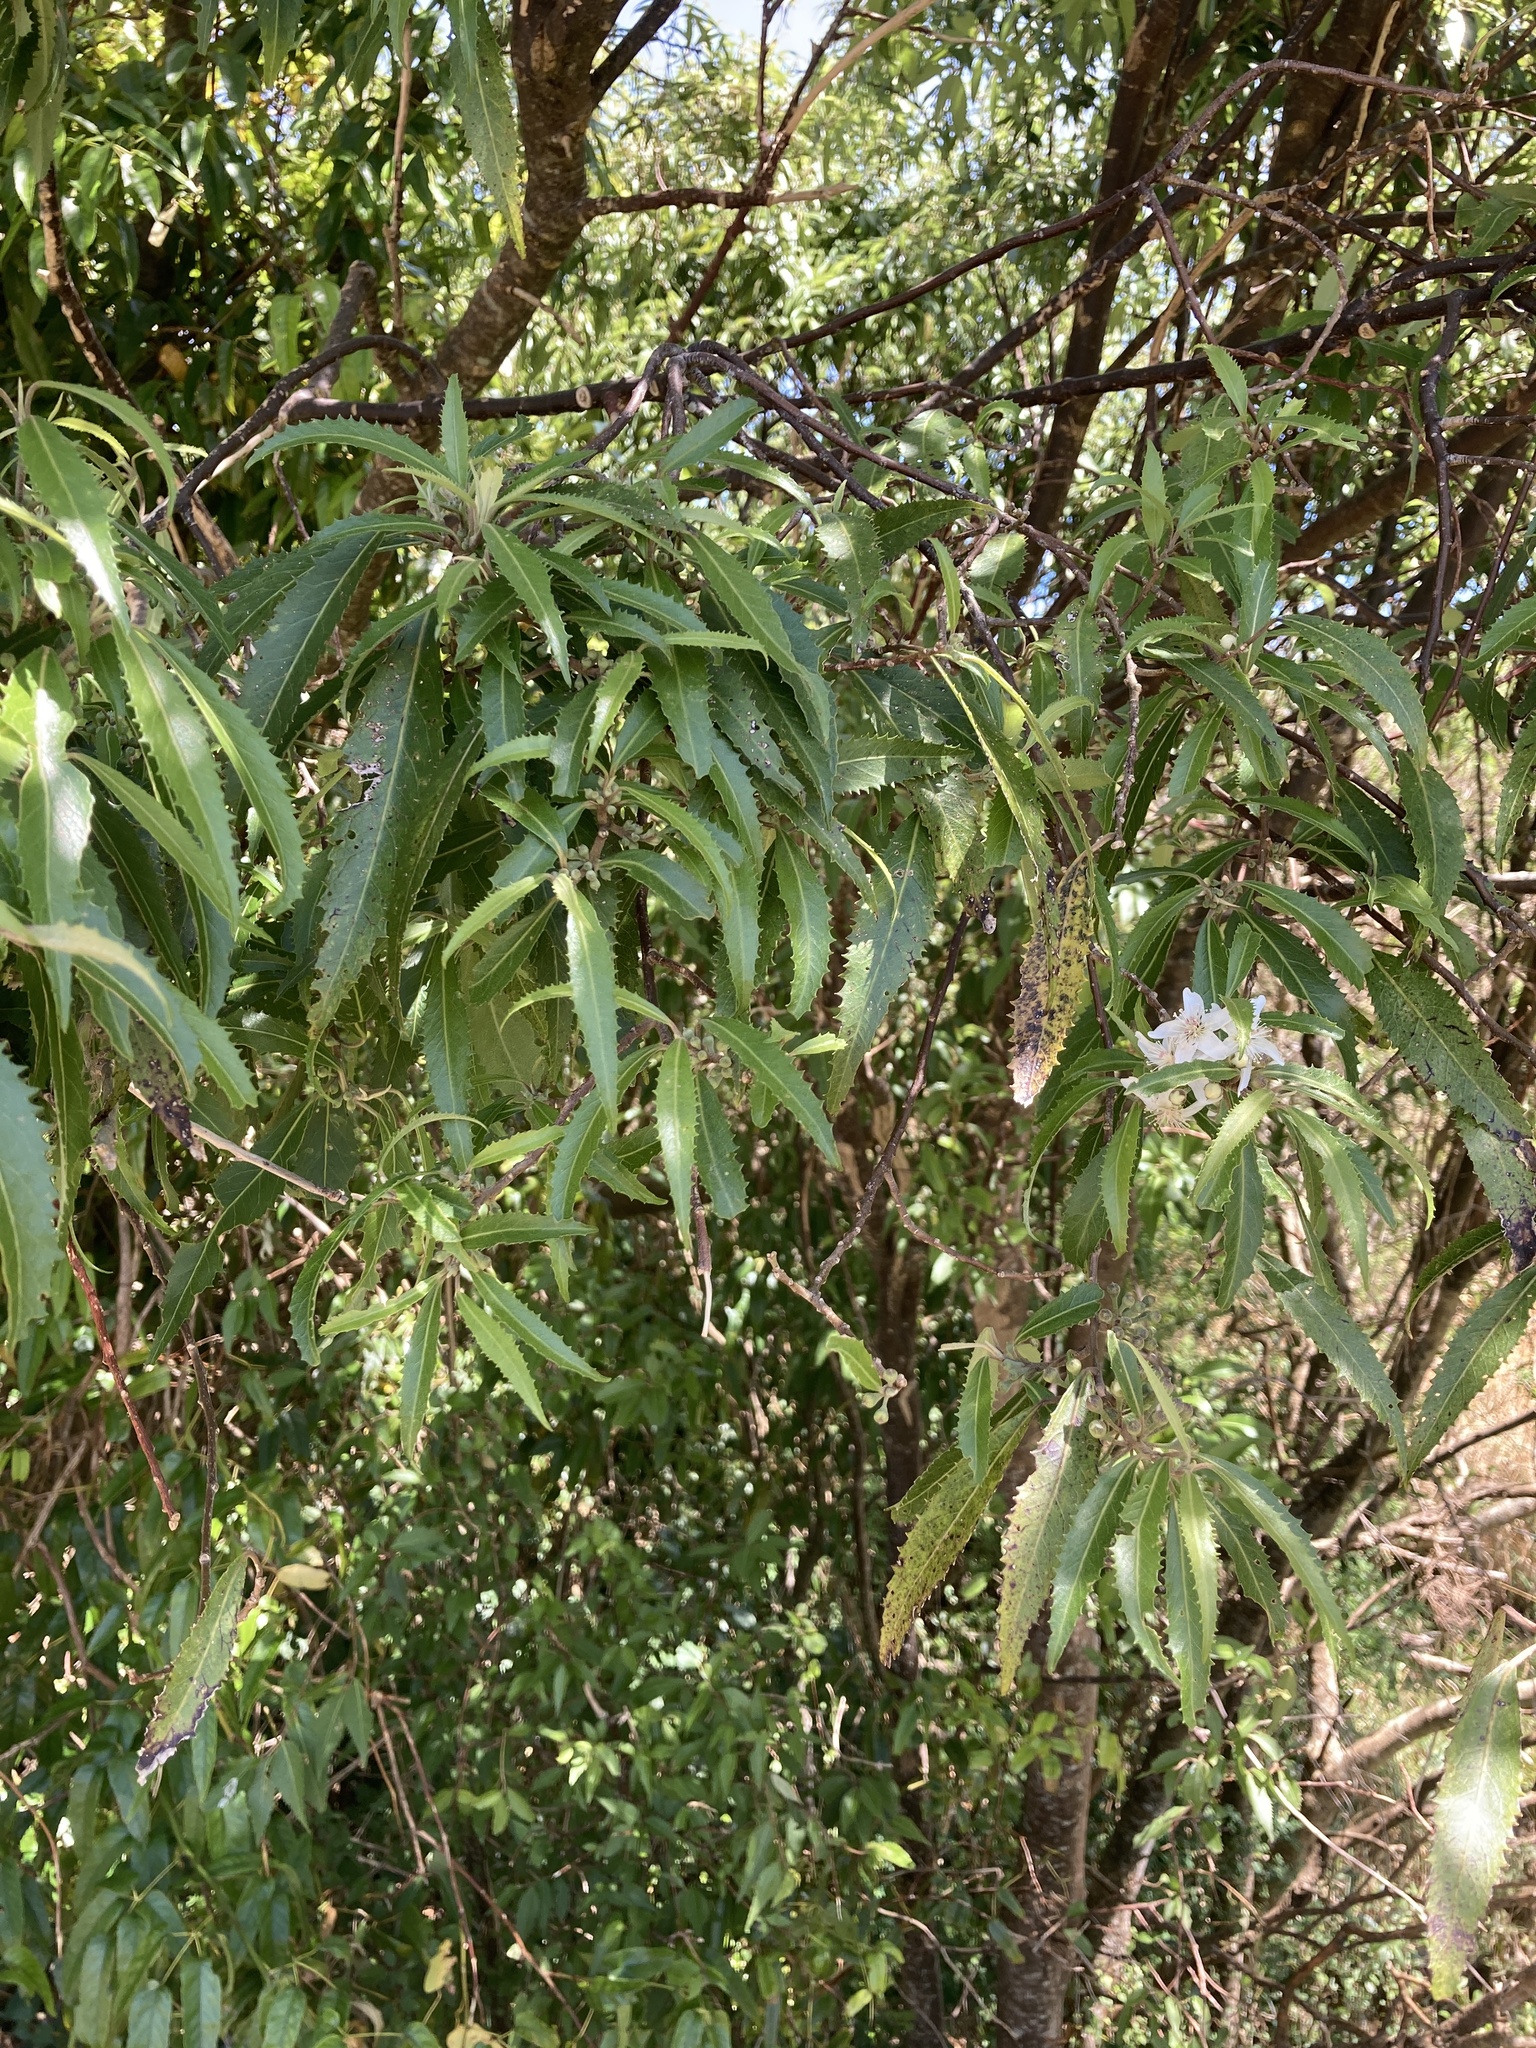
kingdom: Plantae
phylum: Tracheophyta
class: Magnoliopsida
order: Malvales
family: Malvaceae
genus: Hoheria
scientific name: Hoheria sexstylosa
